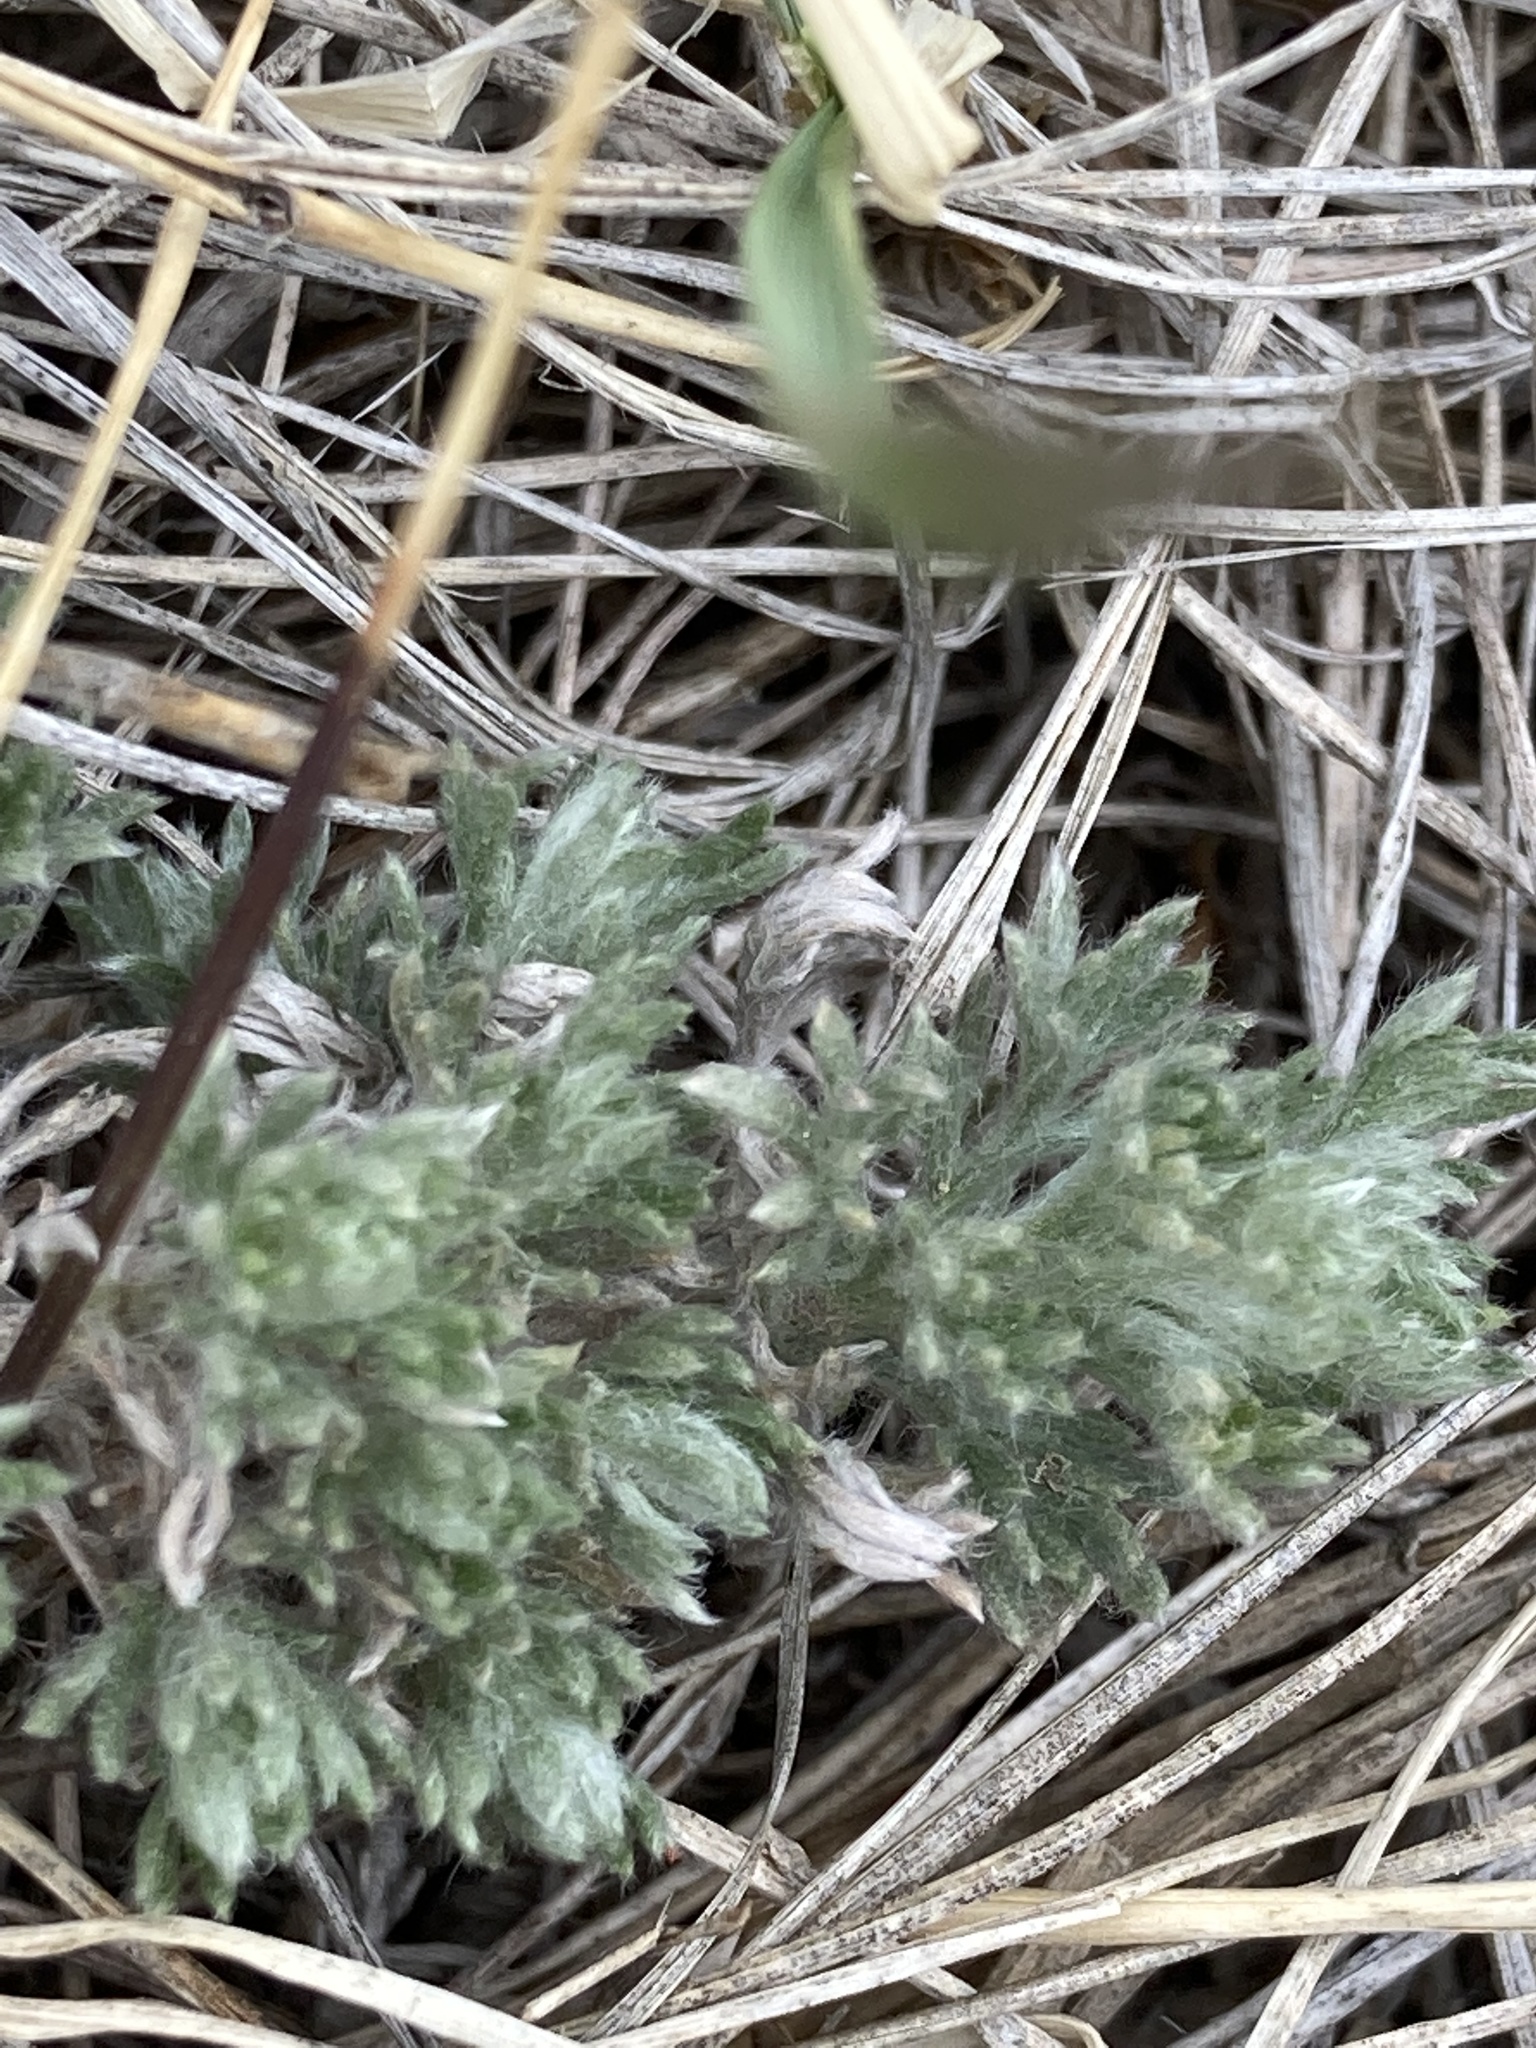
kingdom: Plantae
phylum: Tracheophyta
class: Magnoliopsida
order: Asterales
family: Asteraceae
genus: Artemisia
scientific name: Artemisia frigida
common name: Prairie sagewort
